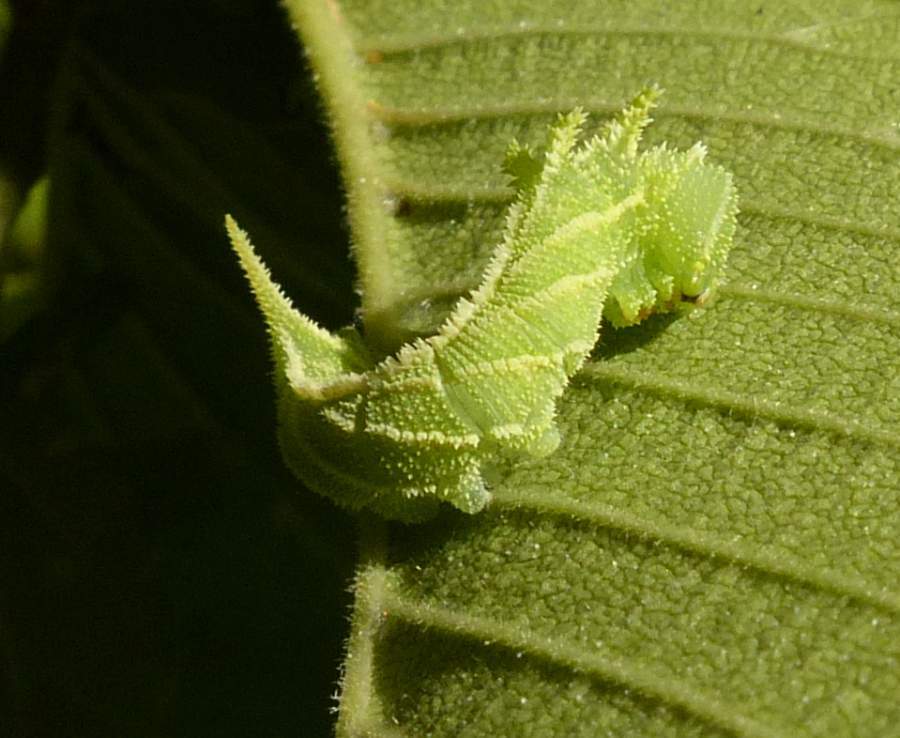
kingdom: Animalia
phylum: Arthropoda
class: Insecta
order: Lepidoptera
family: Sphingidae
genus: Ceratomia
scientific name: Ceratomia amyntor
